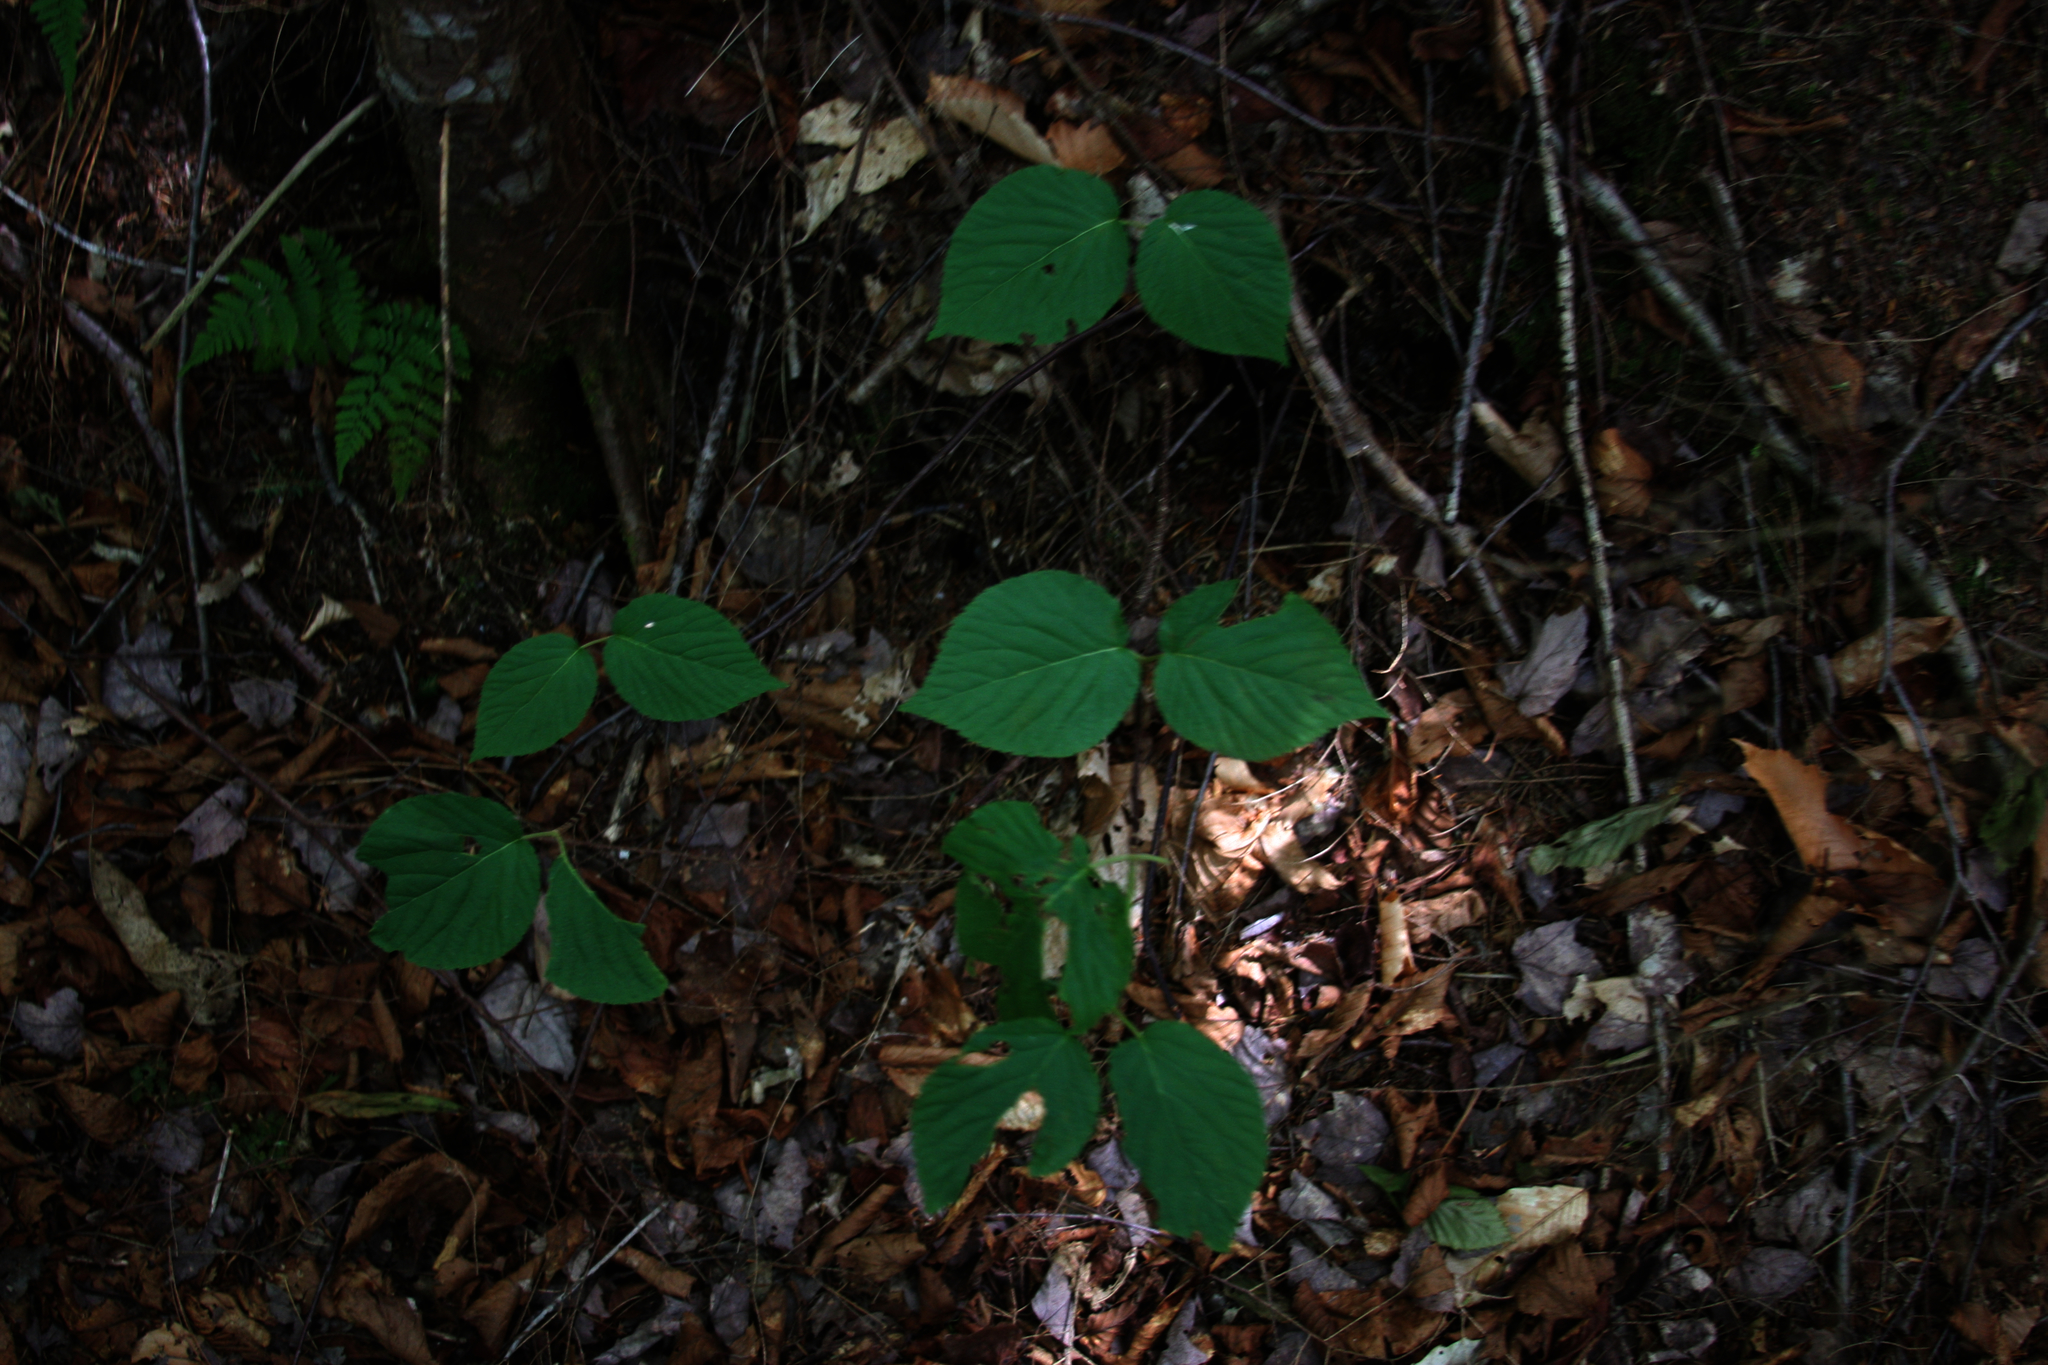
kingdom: Plantae
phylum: Tracheophyta
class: Magnoliopsida
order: Dipsacales
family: Viburnaceae
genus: Viburnum
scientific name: Viburnum lantanoides
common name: Hobblebush
